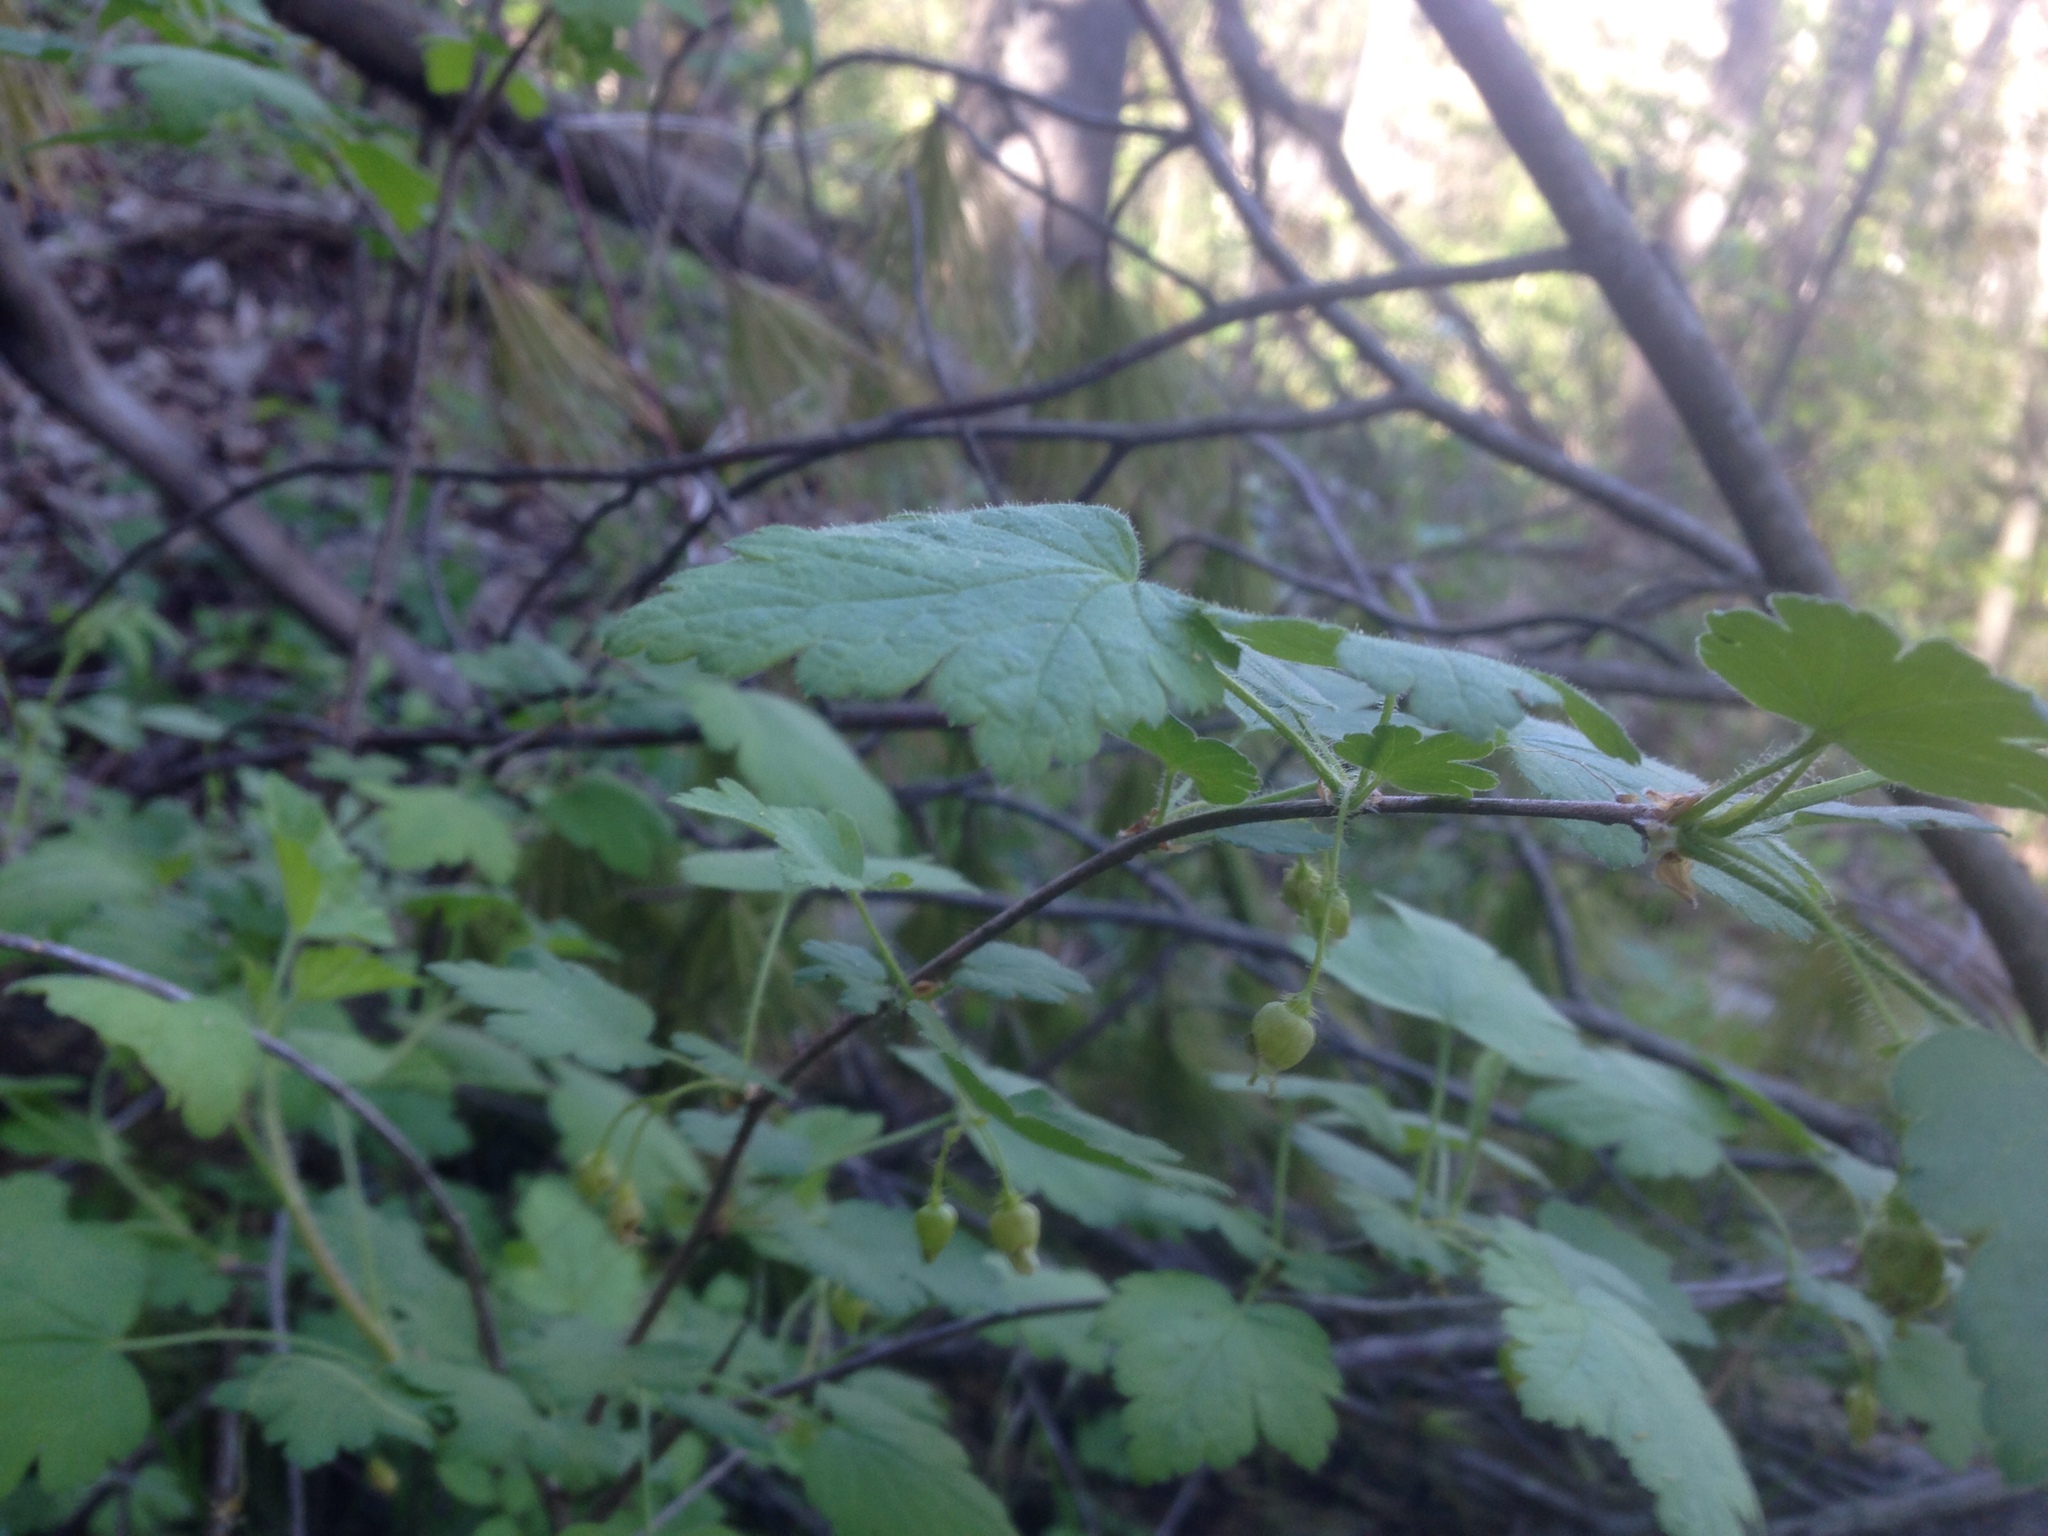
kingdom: Plantae
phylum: Tracheophyta
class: Magnoliopsida
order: Saxifragales
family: Grossulariaceae
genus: Ribes
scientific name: Ribes cynosbati
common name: American gooseberry
